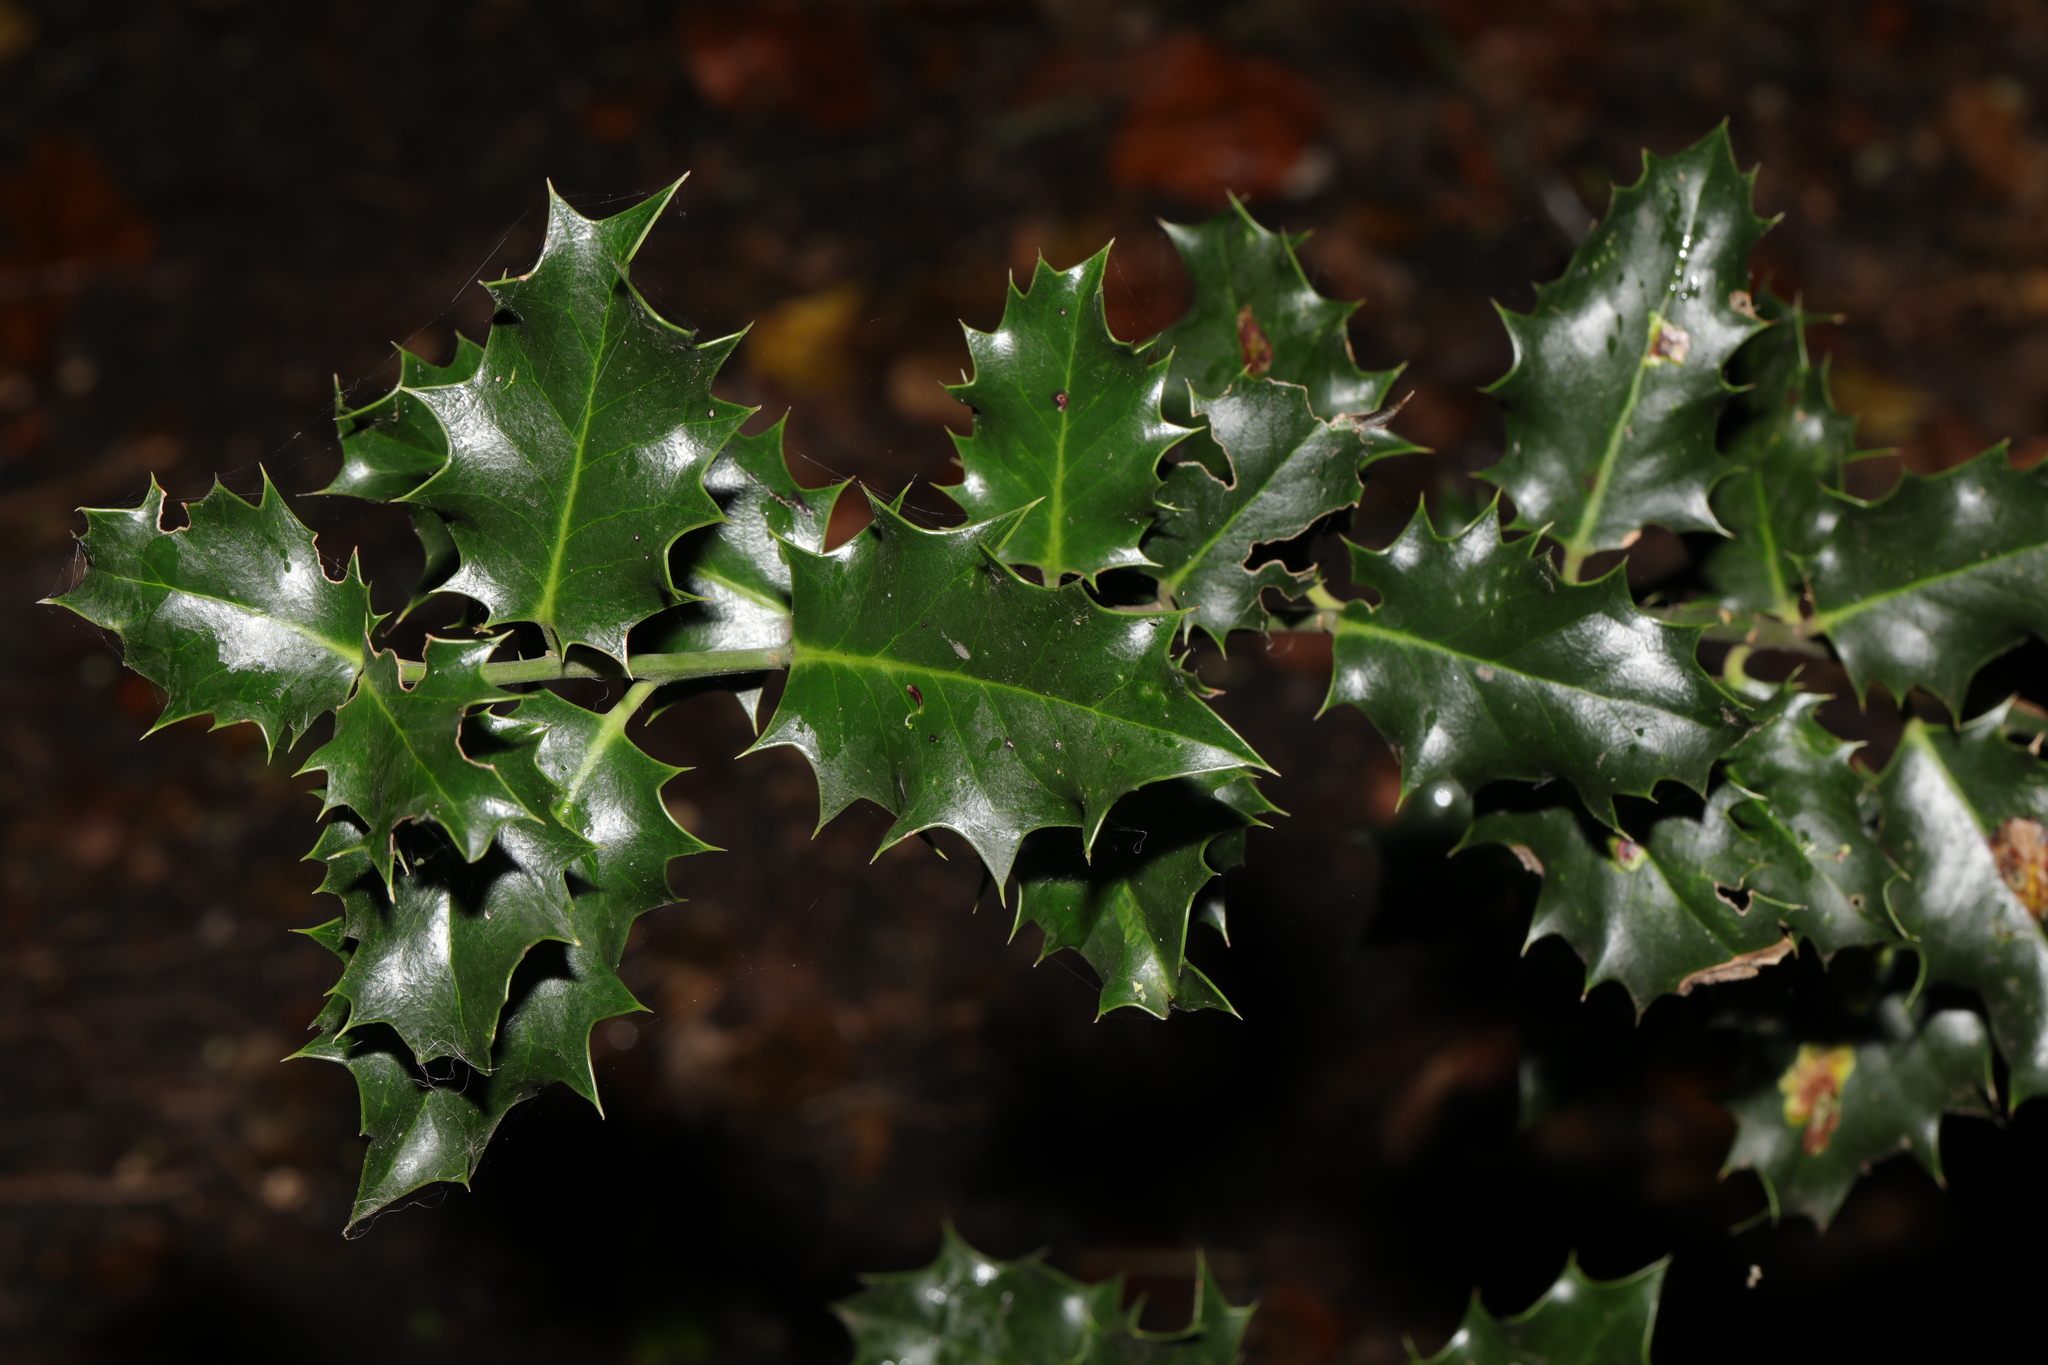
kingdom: Plantae
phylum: Tracheophyta
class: Magnoliopsida
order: Aquifoliales
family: Aquifoliaceae
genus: Ilex
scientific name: Ilex aquifolium
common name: English holly
